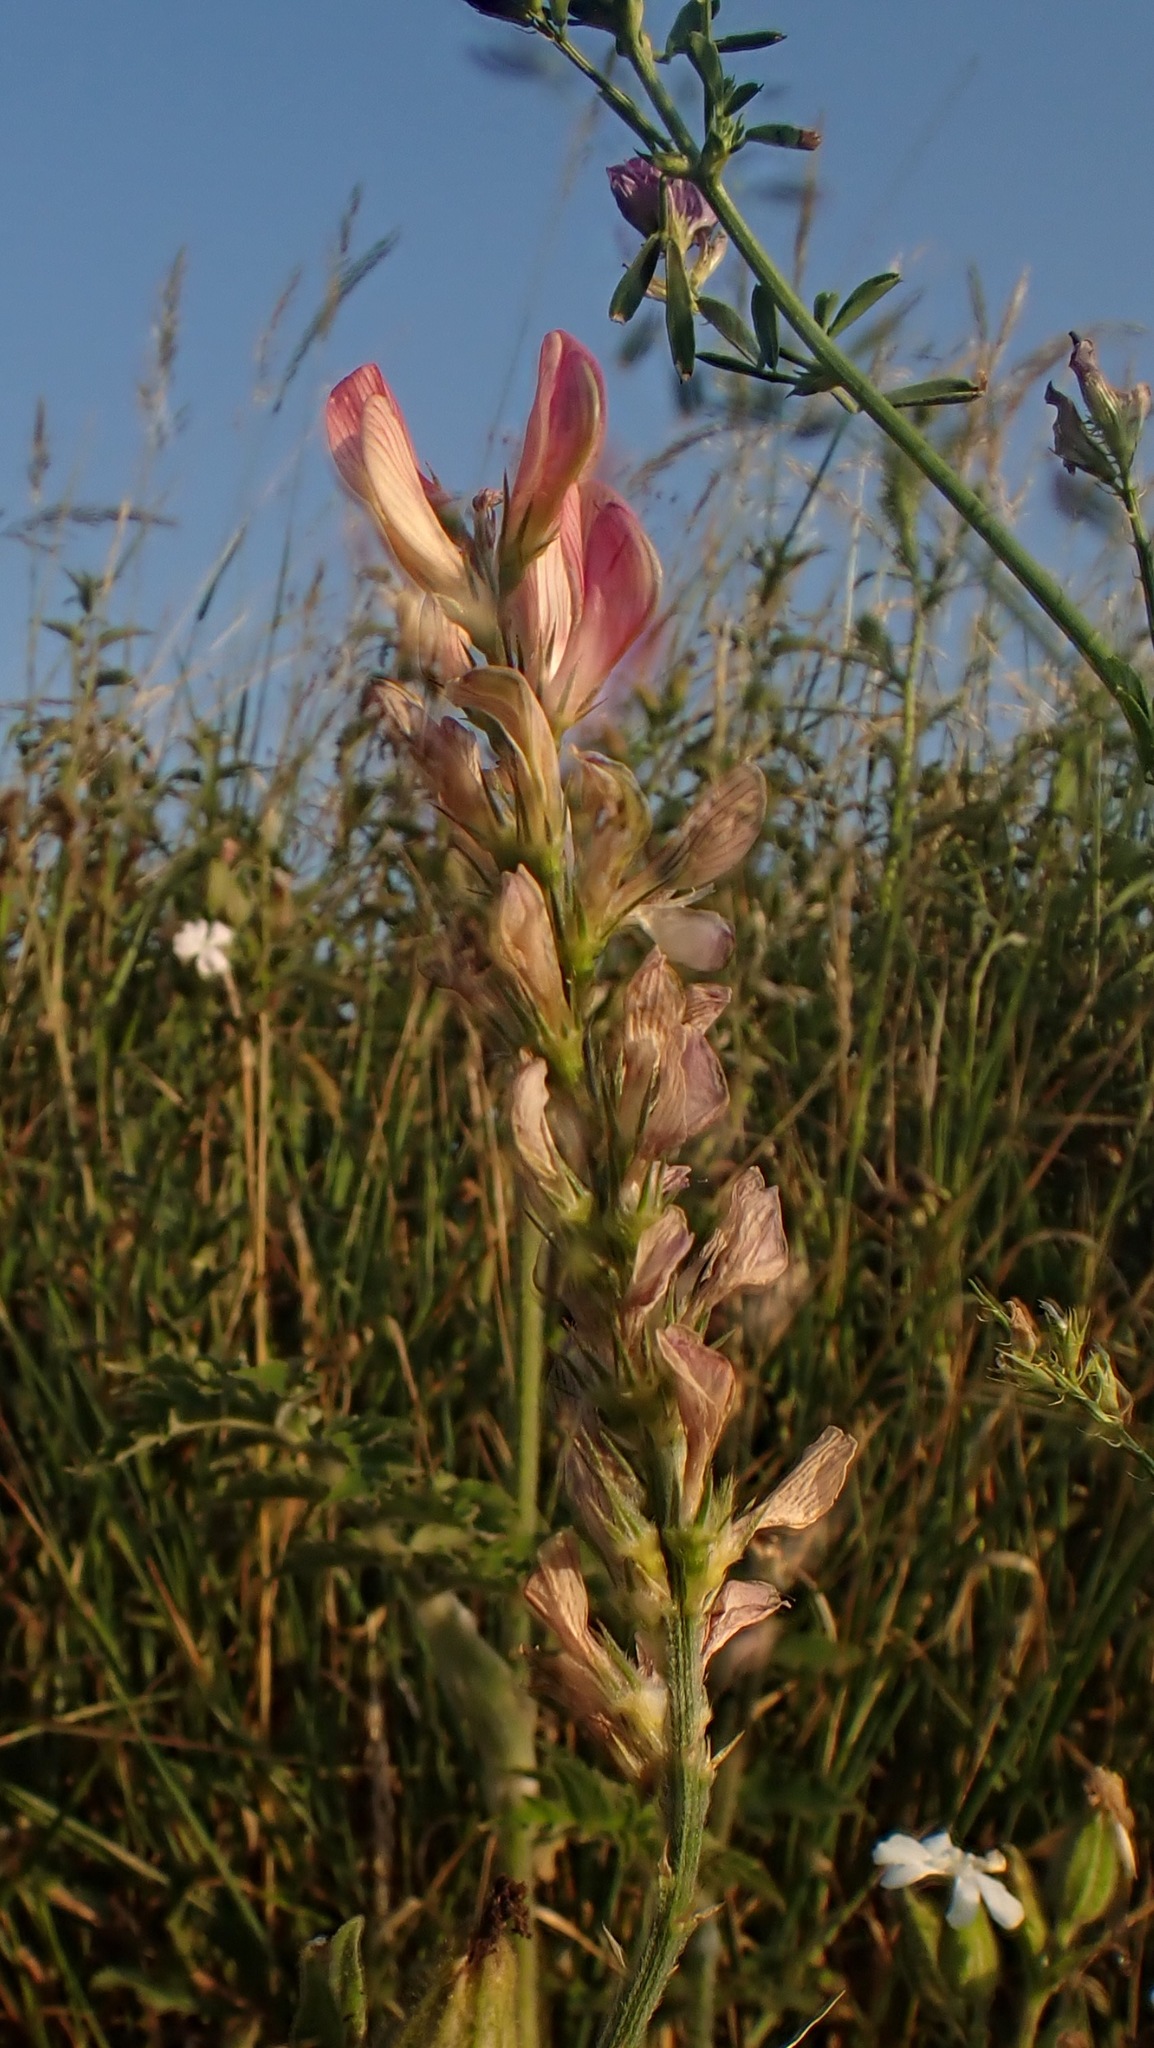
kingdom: Plantae
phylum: Tracheophyta
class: Magnoliopsida
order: Fabales
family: Fabaceae
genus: Onobrychis
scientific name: Onobrychis viciifolia
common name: Sainfoin
